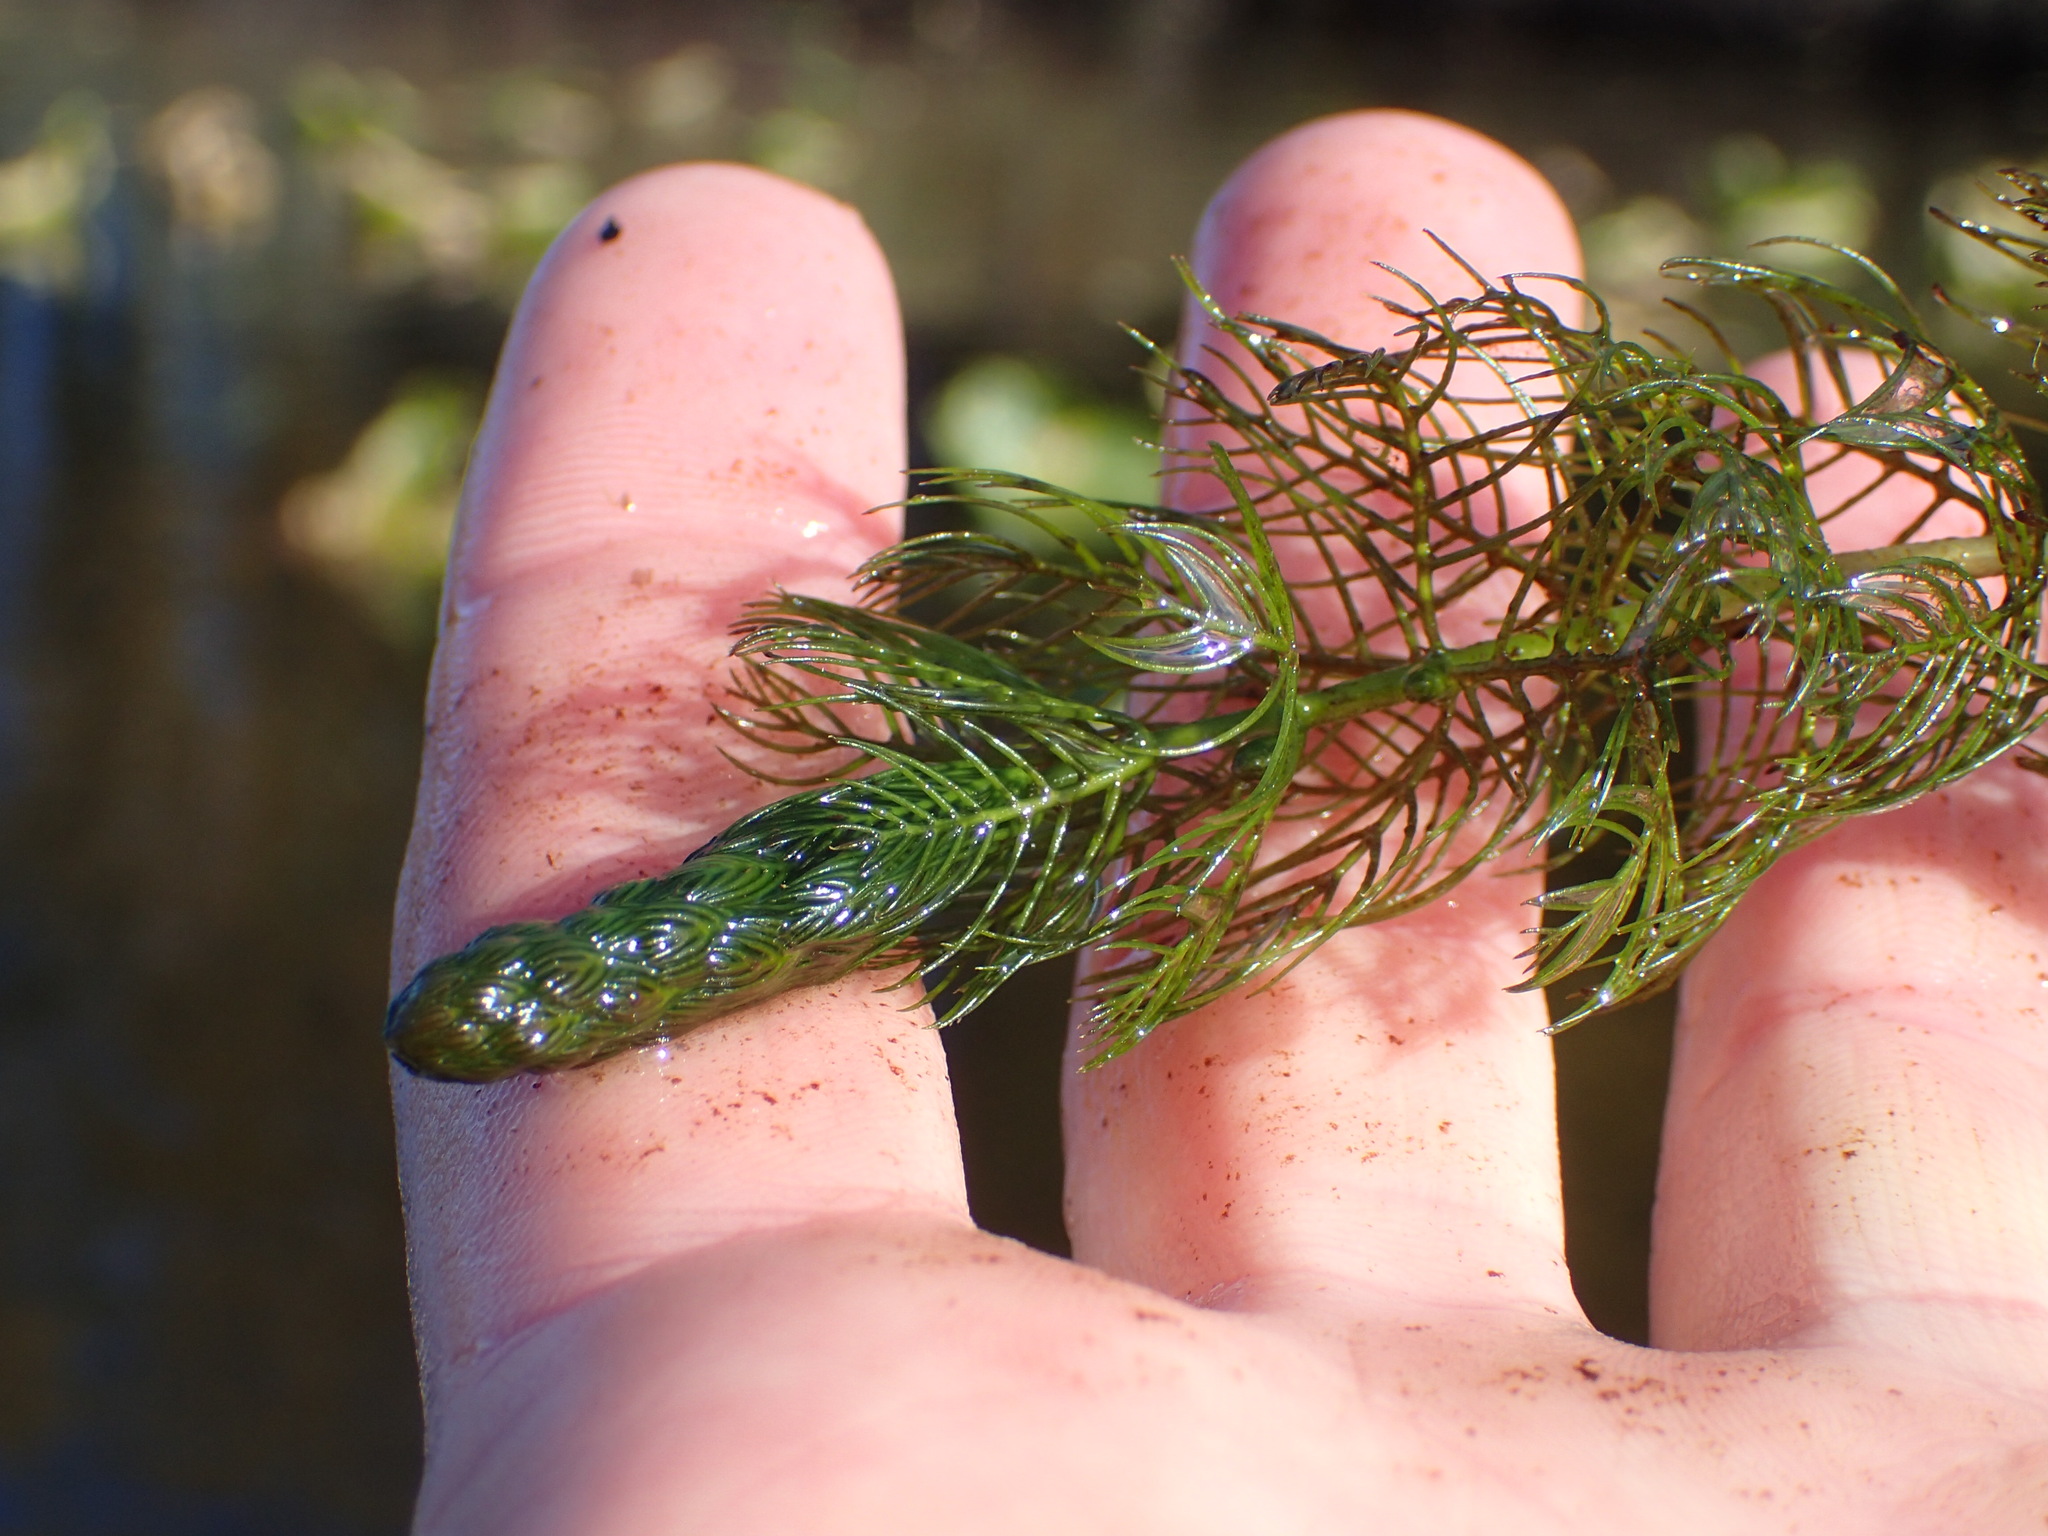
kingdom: Plantae
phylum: Tracheophyta
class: Magnoliopsida
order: Saxifragales
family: Haloragaceae
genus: Myriophyllum
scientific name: Myriophyllum sibiricum
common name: Siberian water-milfoil
